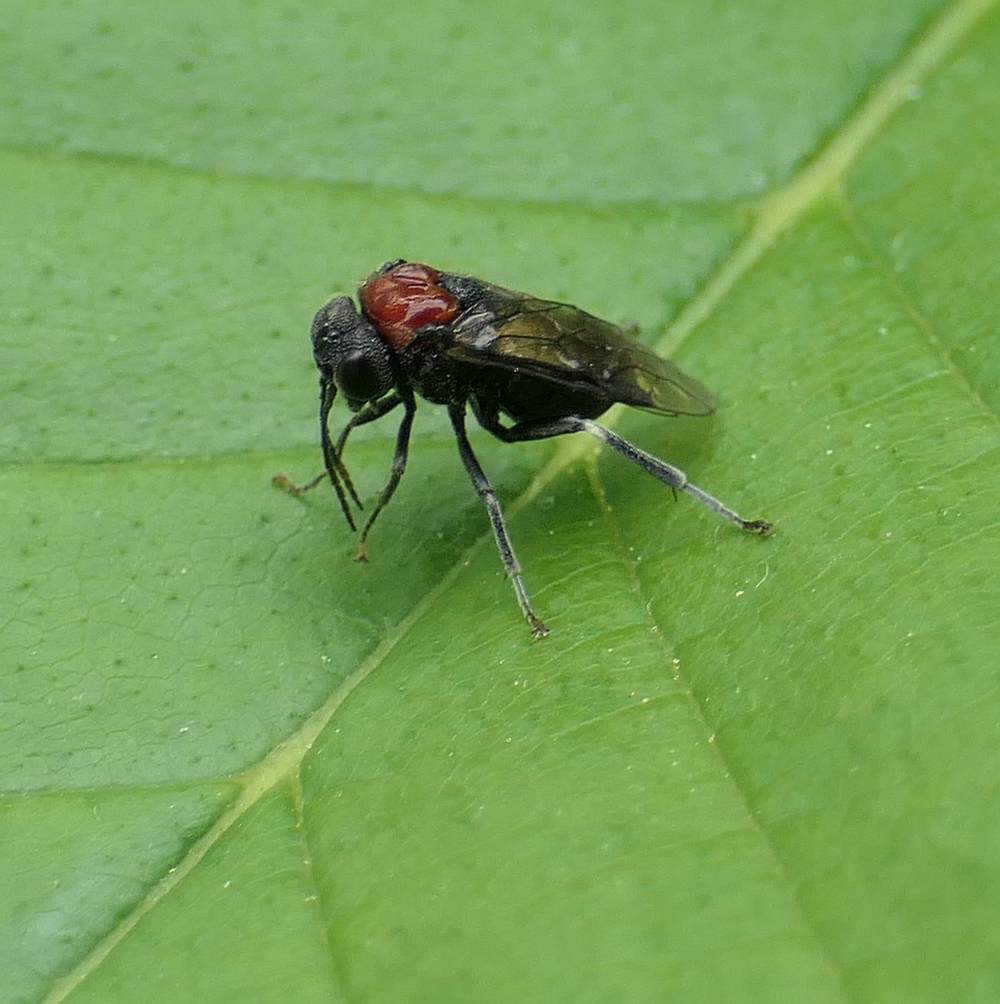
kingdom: Animalia
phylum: Arthropoda
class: Insecta
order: Hymenoptera
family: Tenthredinidae
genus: Eriocampa
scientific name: Eriocampa ovata
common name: Alder wooly sawfly
